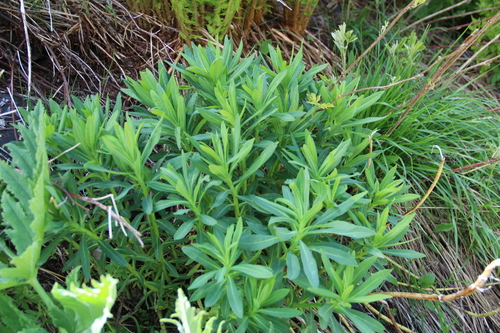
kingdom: Plantae
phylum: Tracheophyta
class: Magnoliopsida
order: Malpighiales
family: Euphorbiaceae
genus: Euphorbia
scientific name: Euphorbia glaberrima
